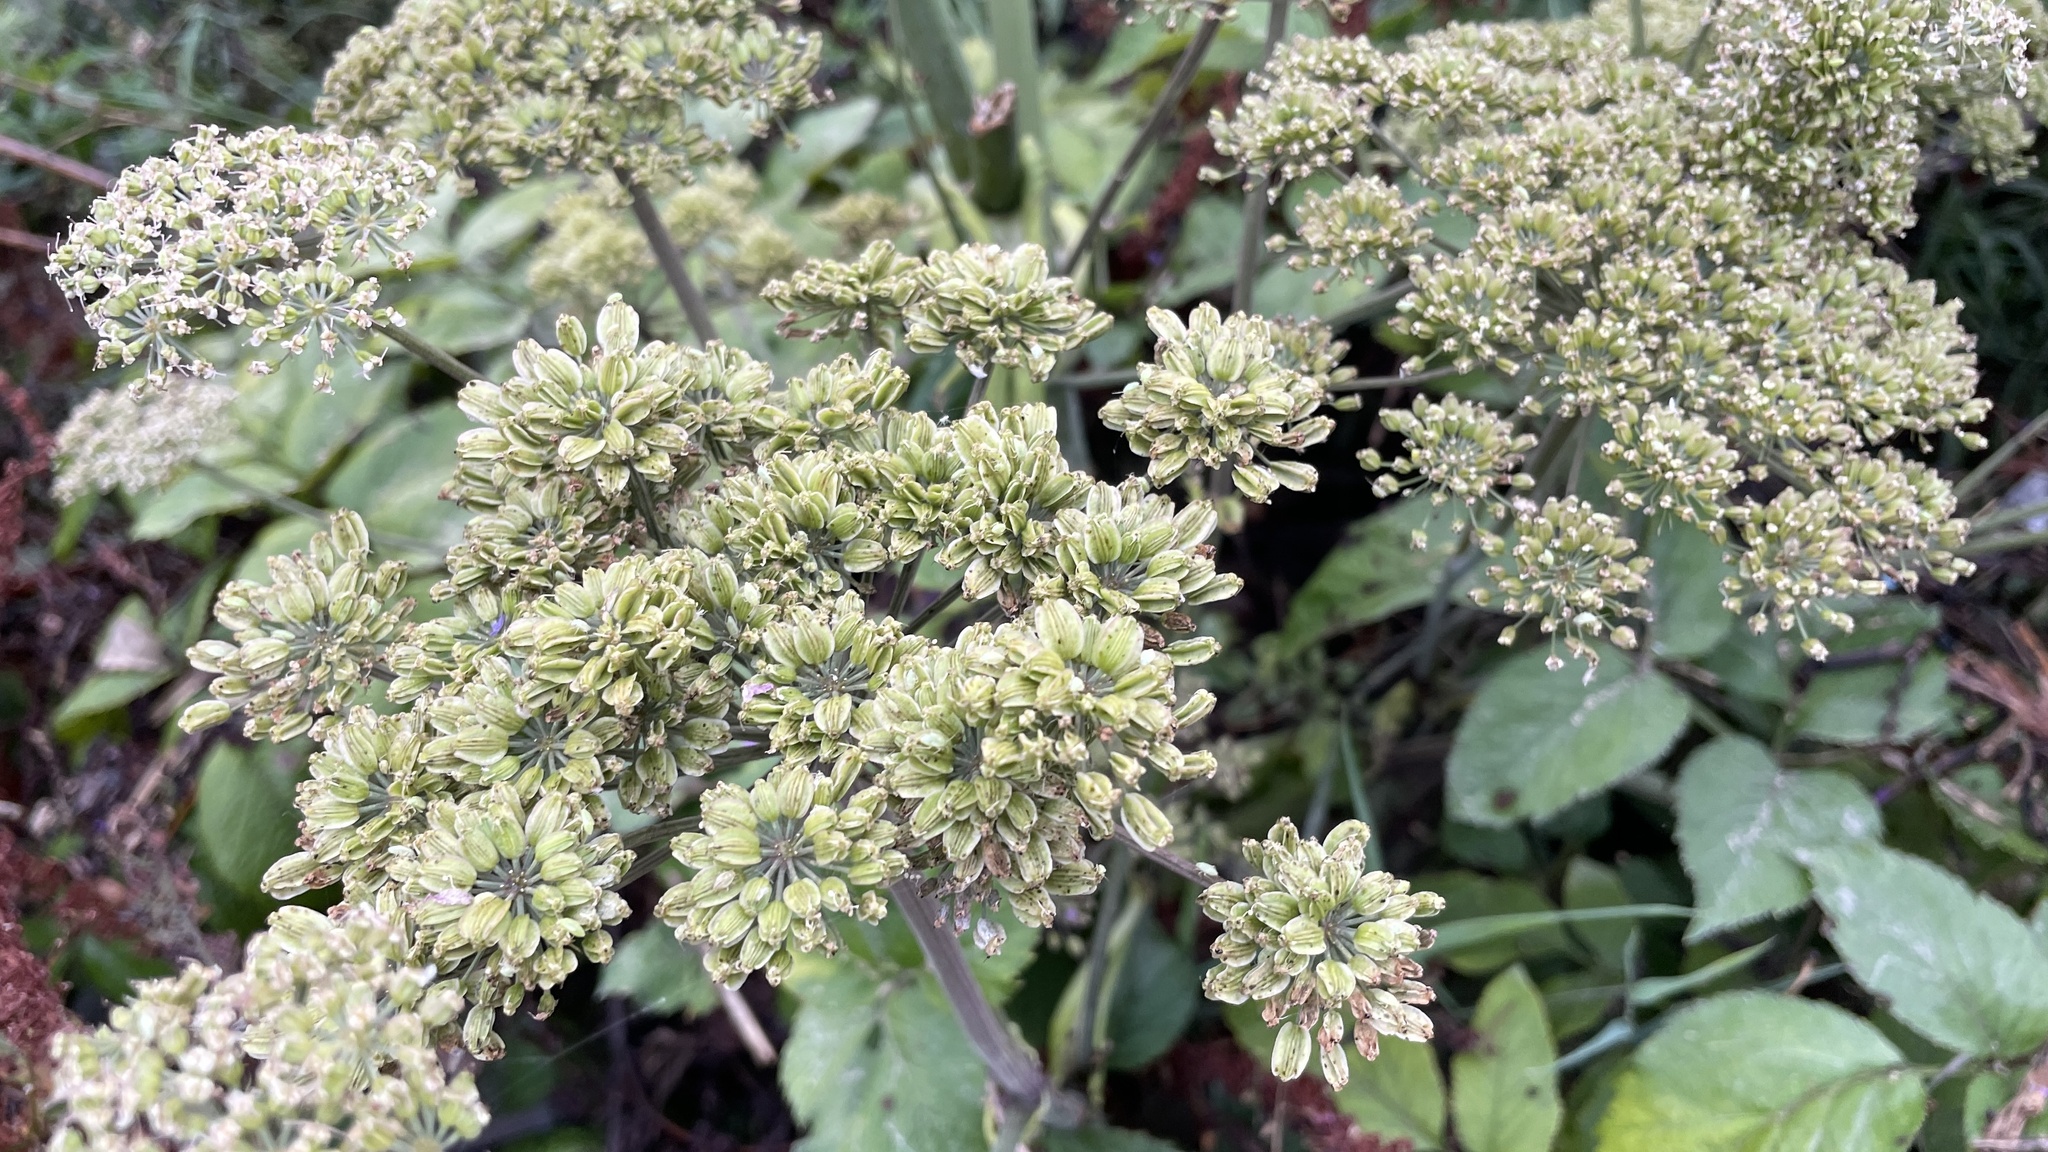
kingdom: Plantae
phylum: Tracheophyta
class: Magnoliopsida
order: Apiales
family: Apiaceae
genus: Angelica
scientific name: Angelica archangelica
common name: Garden angelica
